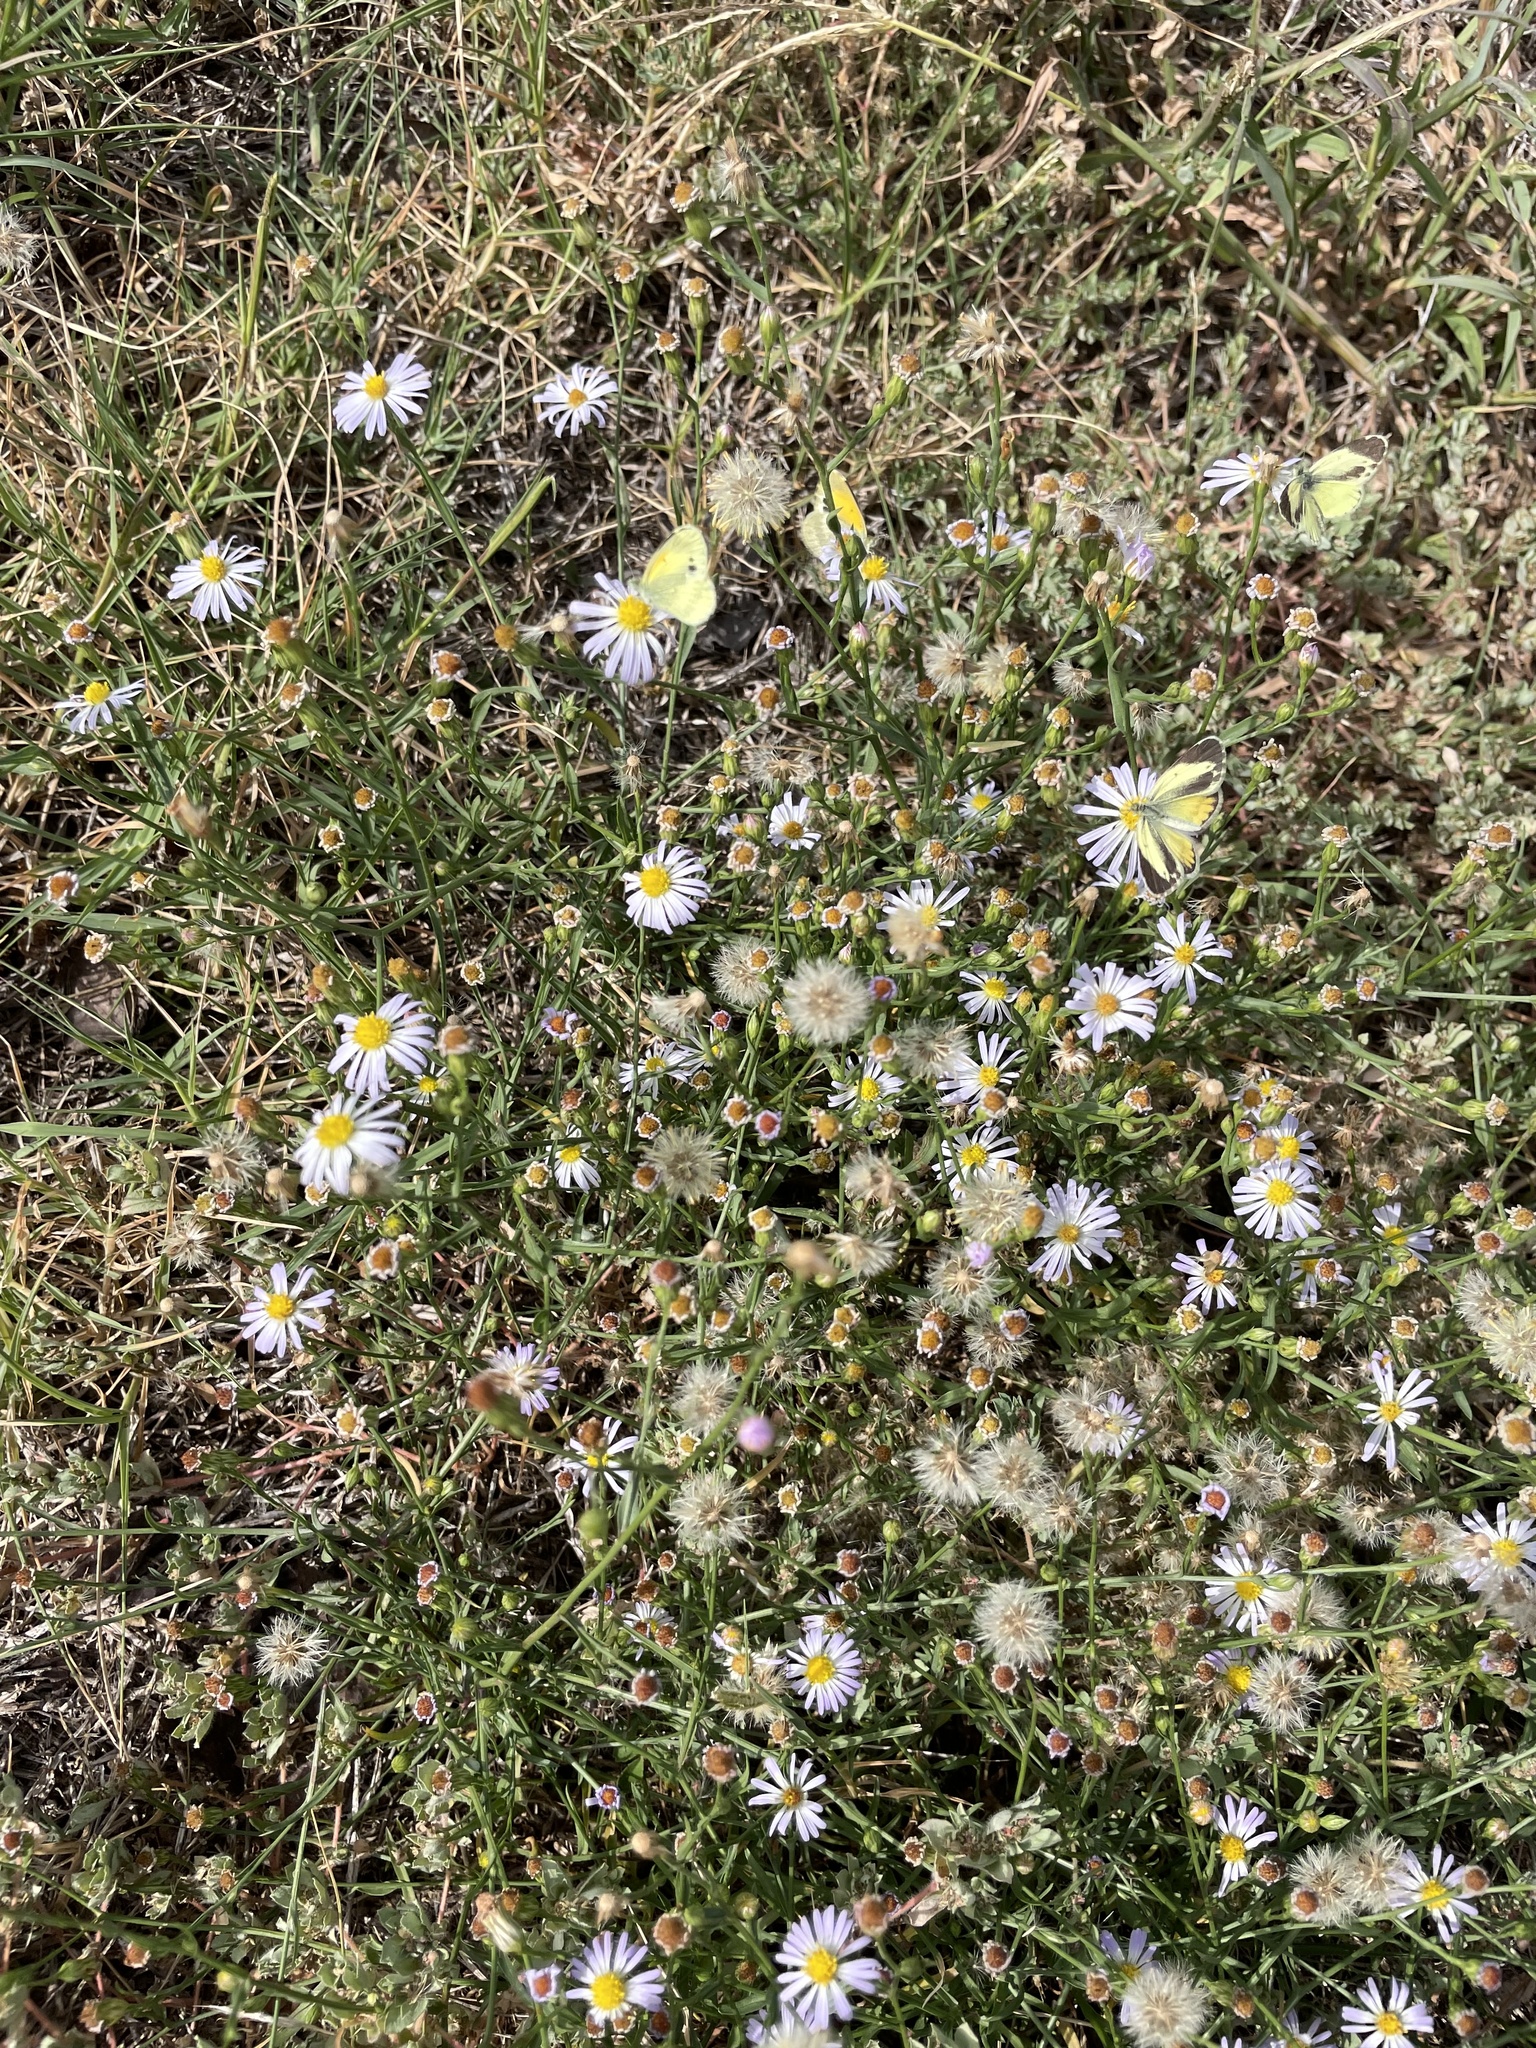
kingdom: Animalia
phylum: Arthropoda
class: Insecta
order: Lepidoptera
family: Pieridae
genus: Nathalis
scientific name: Nathalis iole
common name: Dainty sulphur
